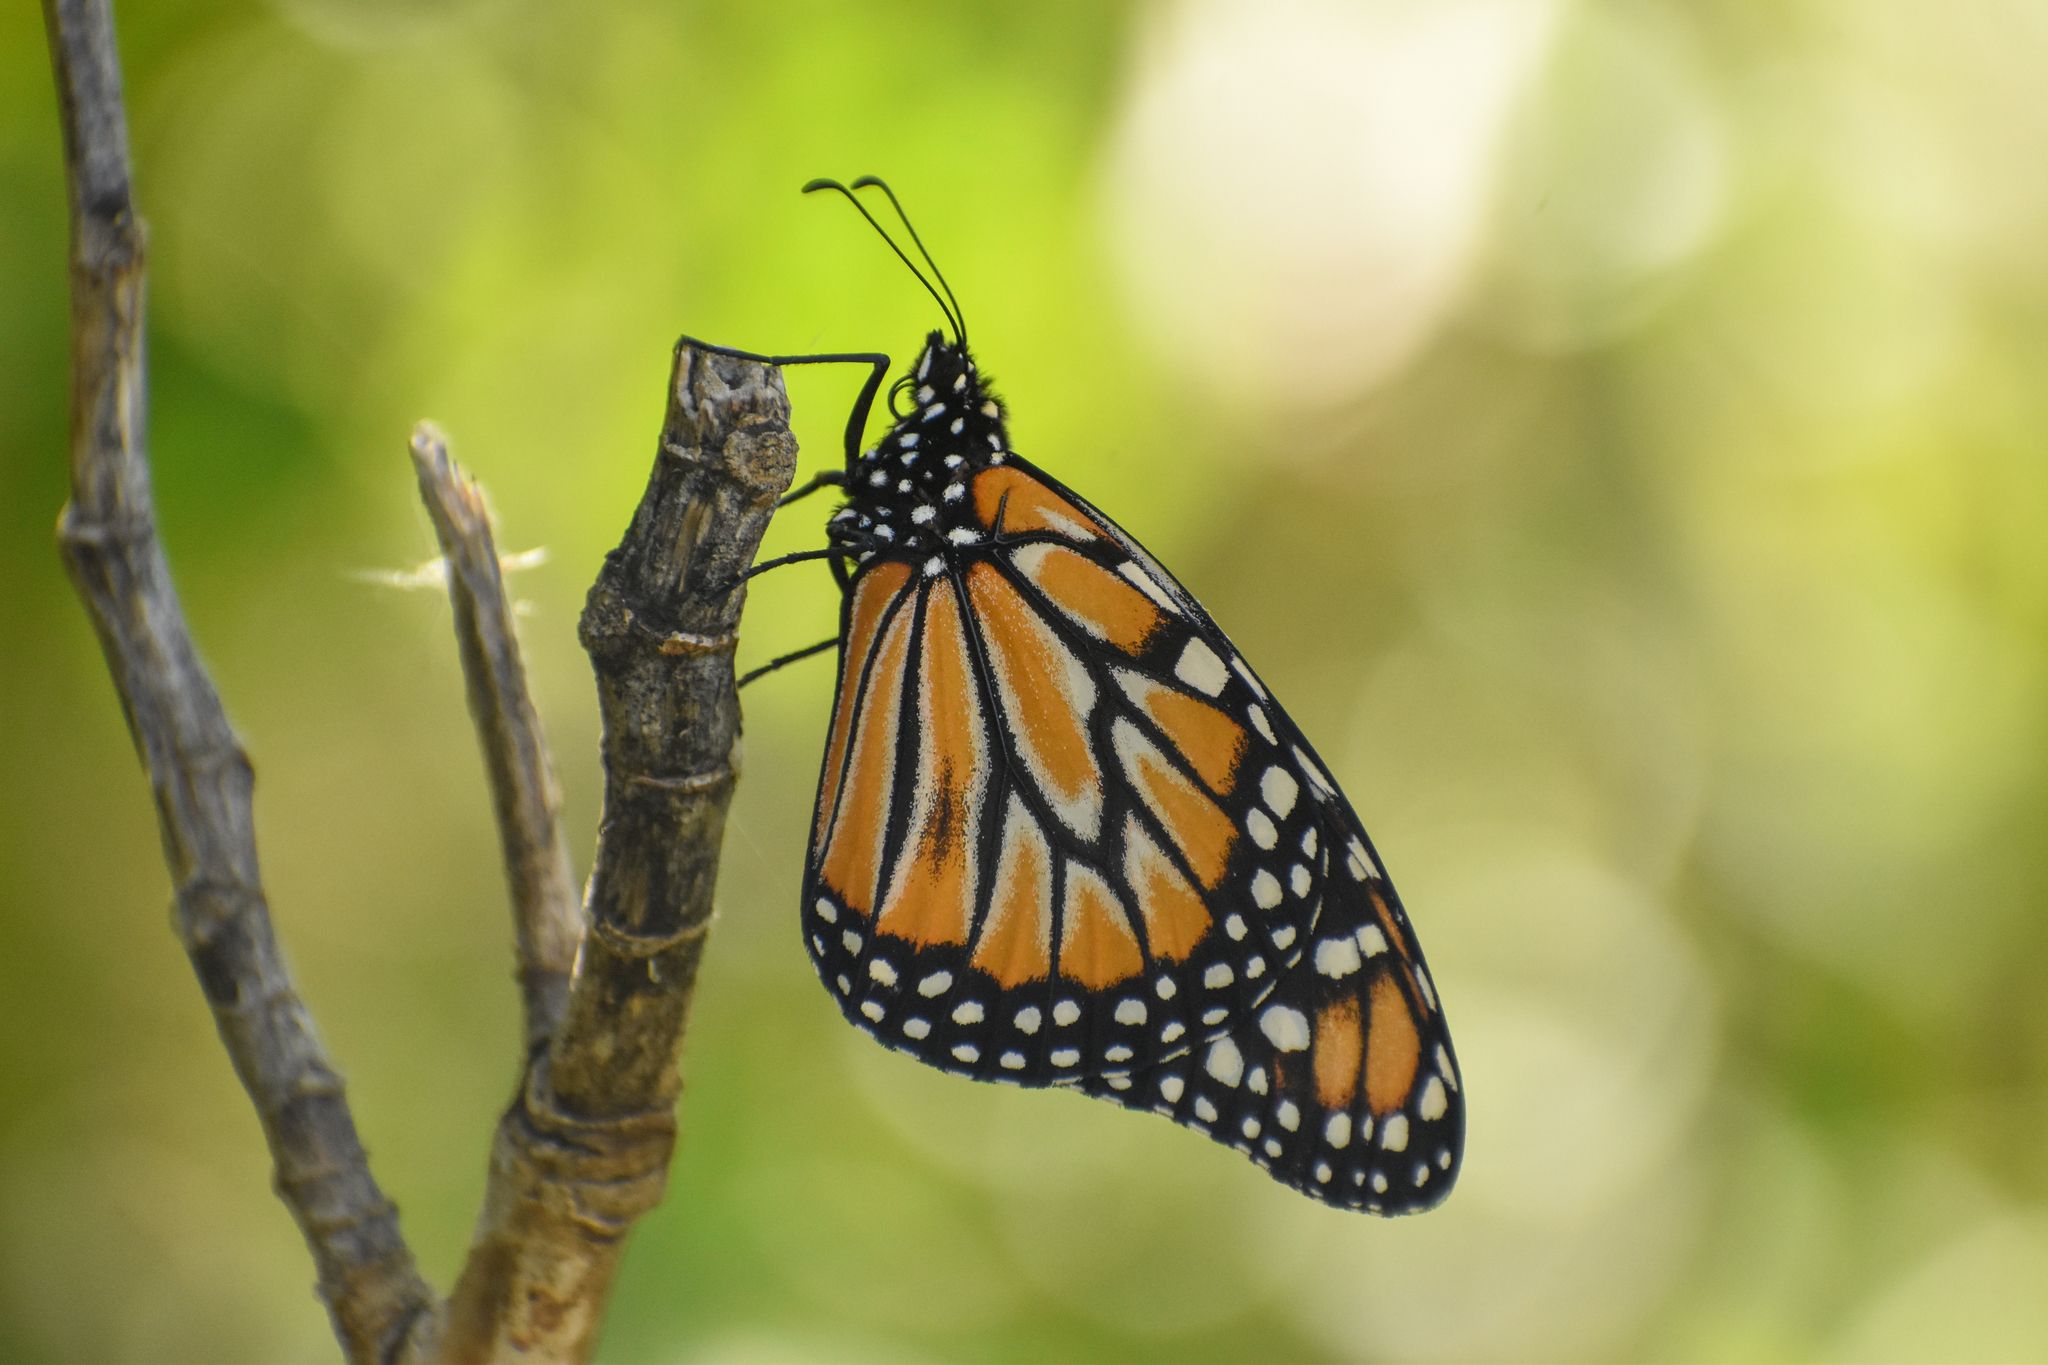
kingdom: Animalia
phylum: Arthropoda
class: Insecta
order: Lepidoptera
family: Nymphalidae
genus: Danaus
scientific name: Danaus erippus
